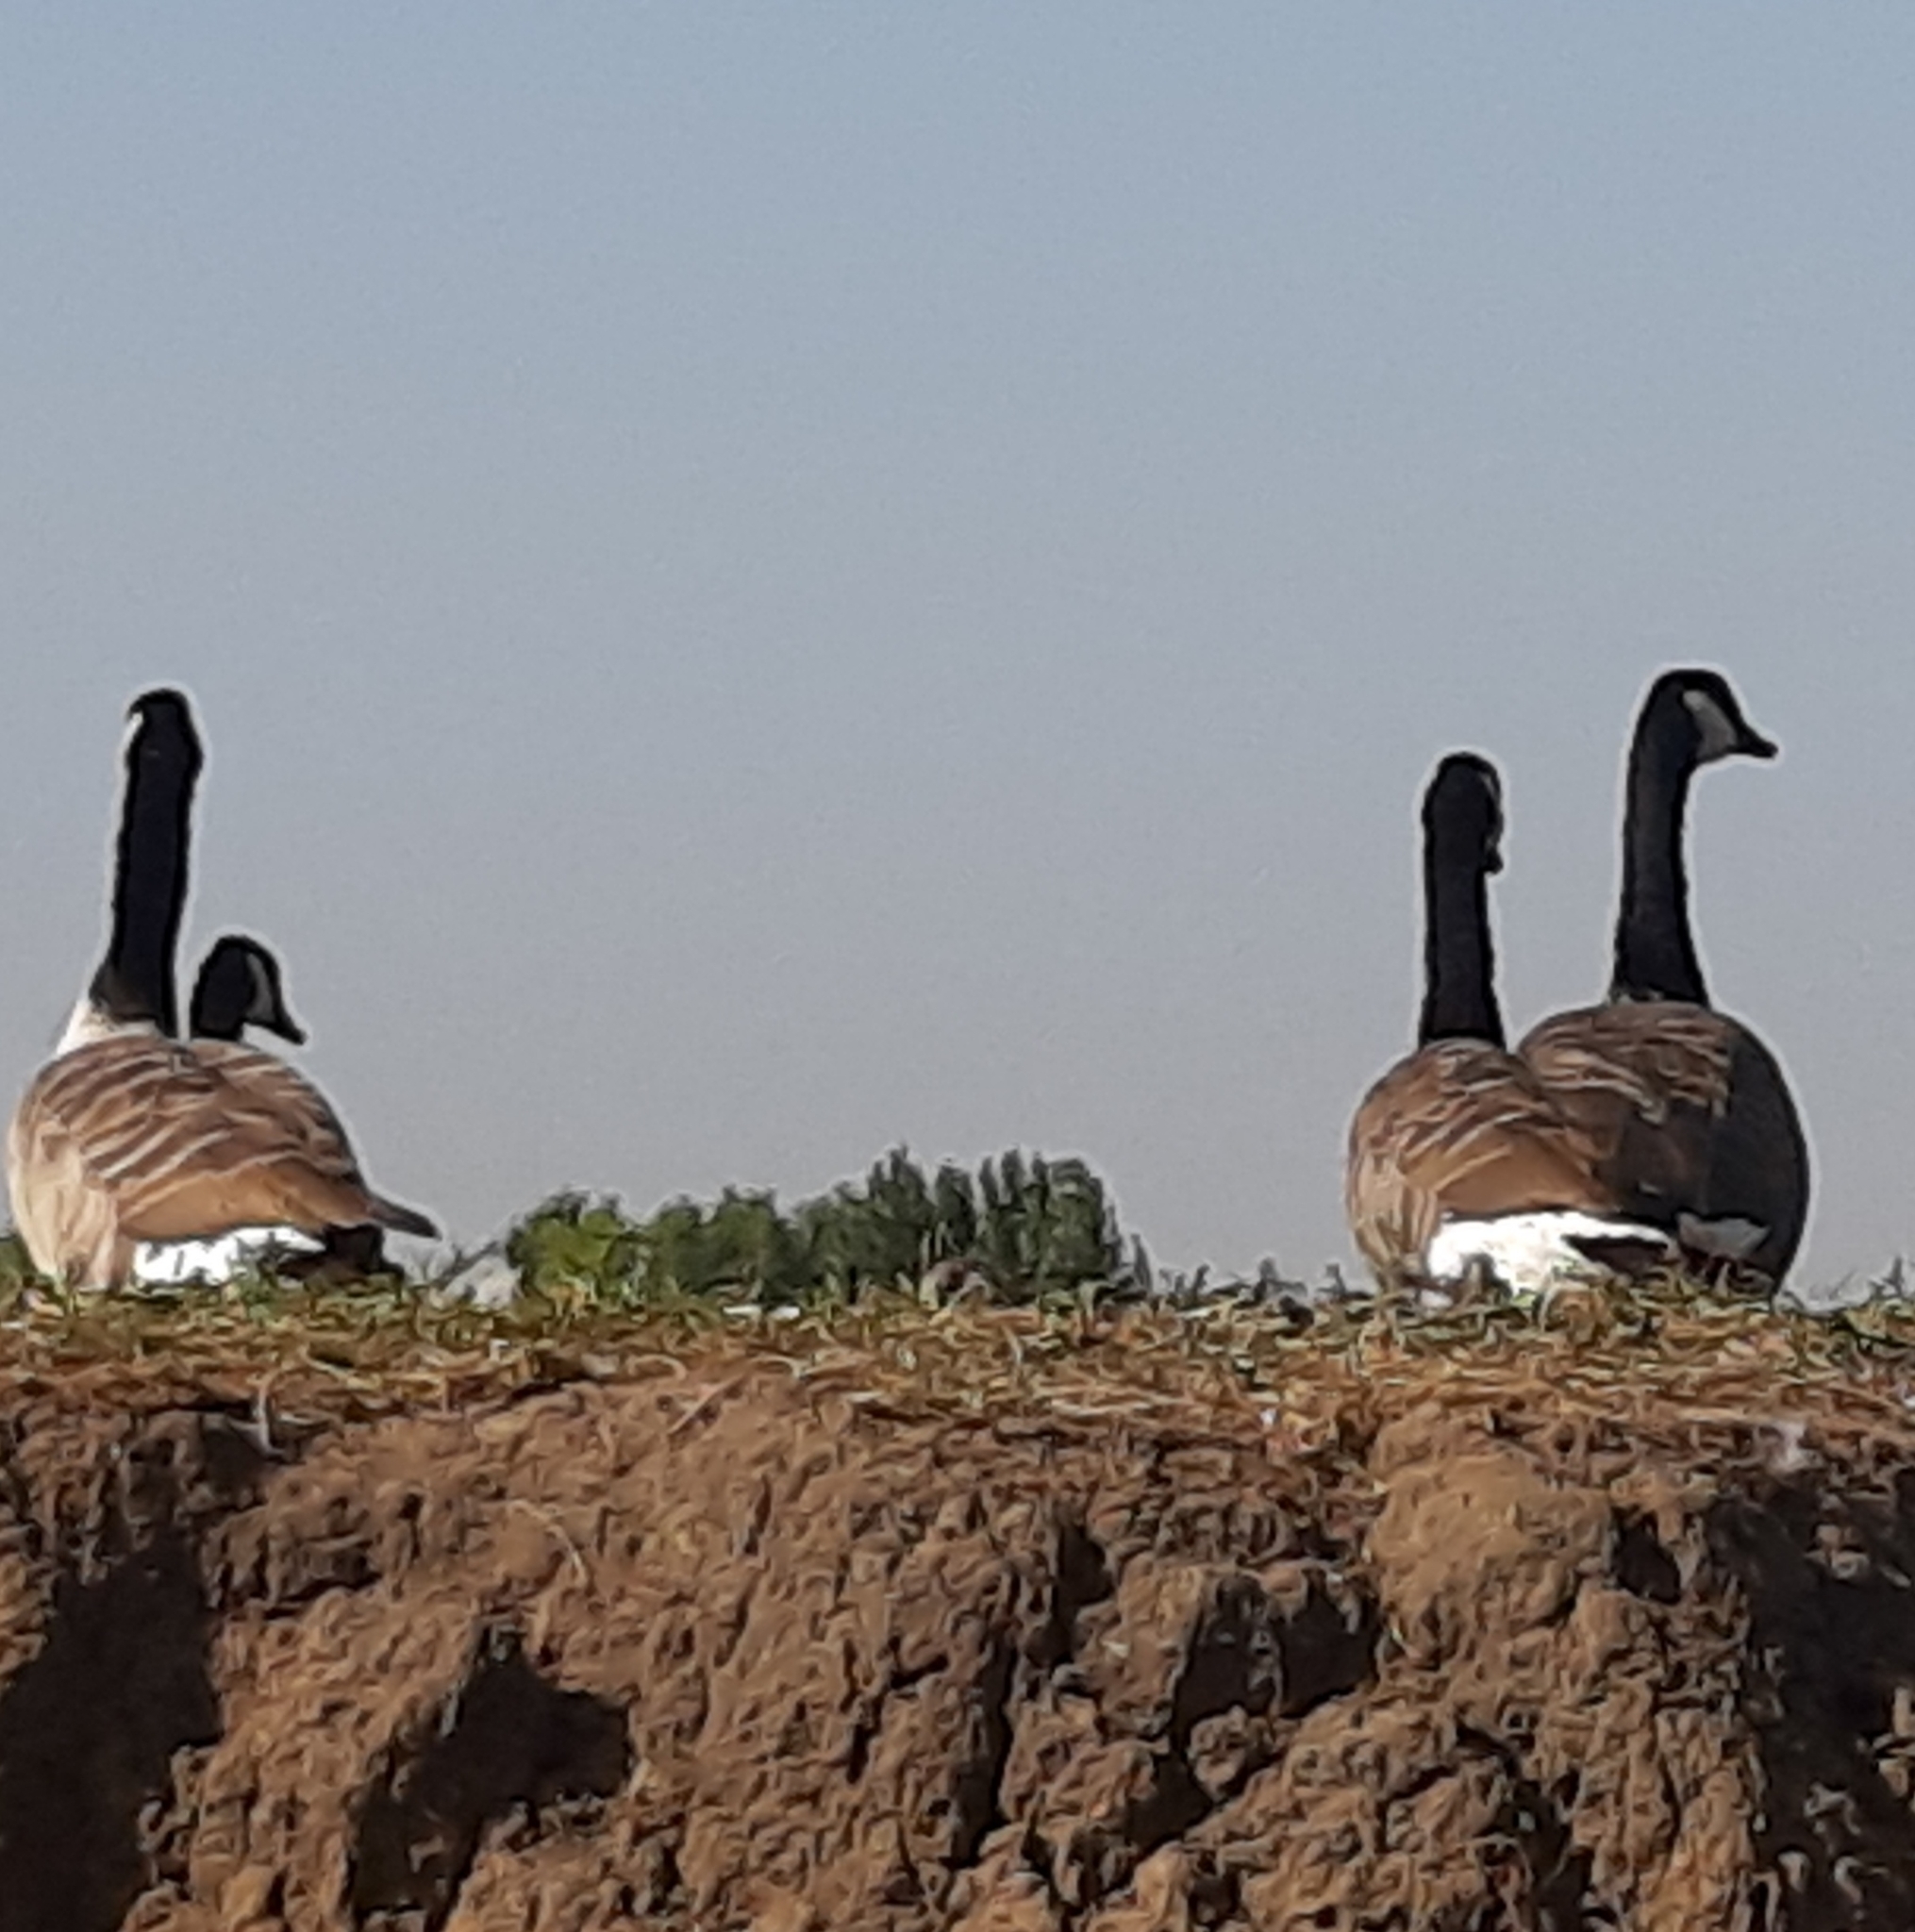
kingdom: Animalia
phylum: Chordata
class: Aves
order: Anseriformes
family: Anatidae
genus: Branta
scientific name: Branta canadensis
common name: Canada goose
